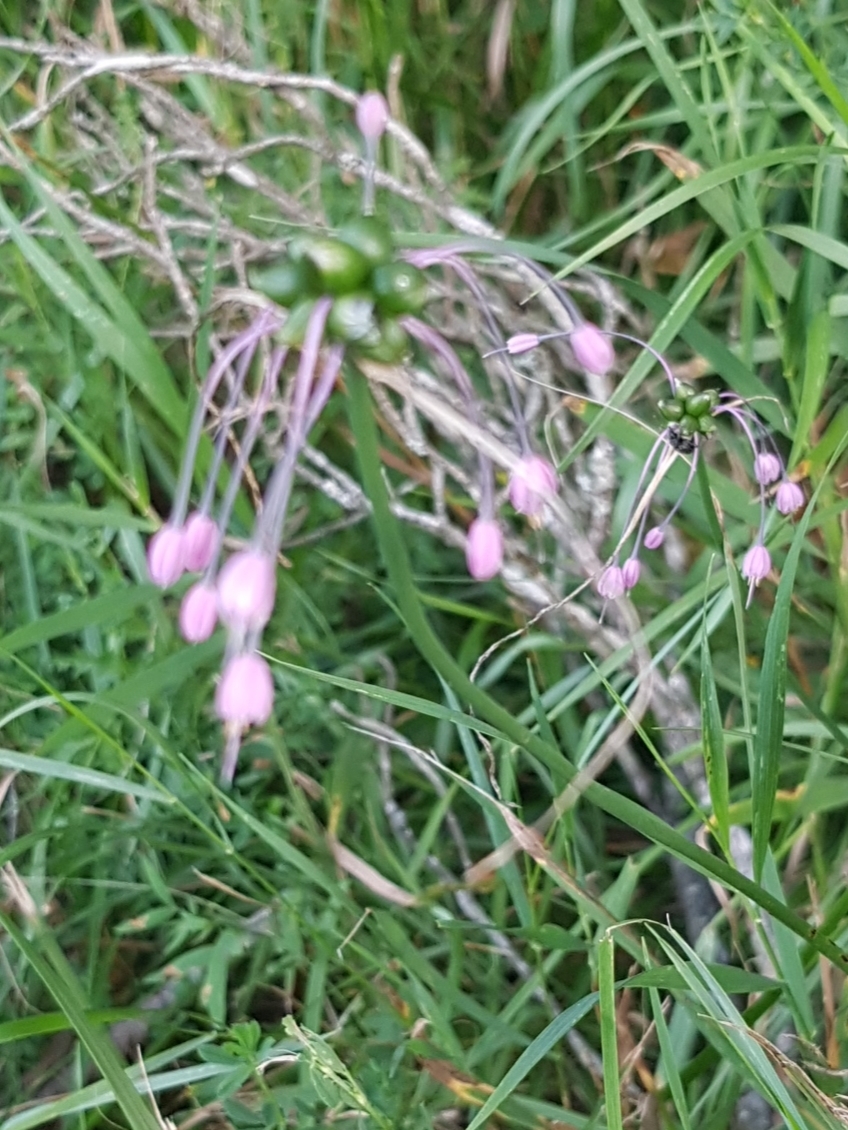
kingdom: Plantae
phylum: Tracheophyta
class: Liliopsida
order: Asparagales
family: Amaryllidaceae
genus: Allium
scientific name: Allium carinatum
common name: Keeled garlic
